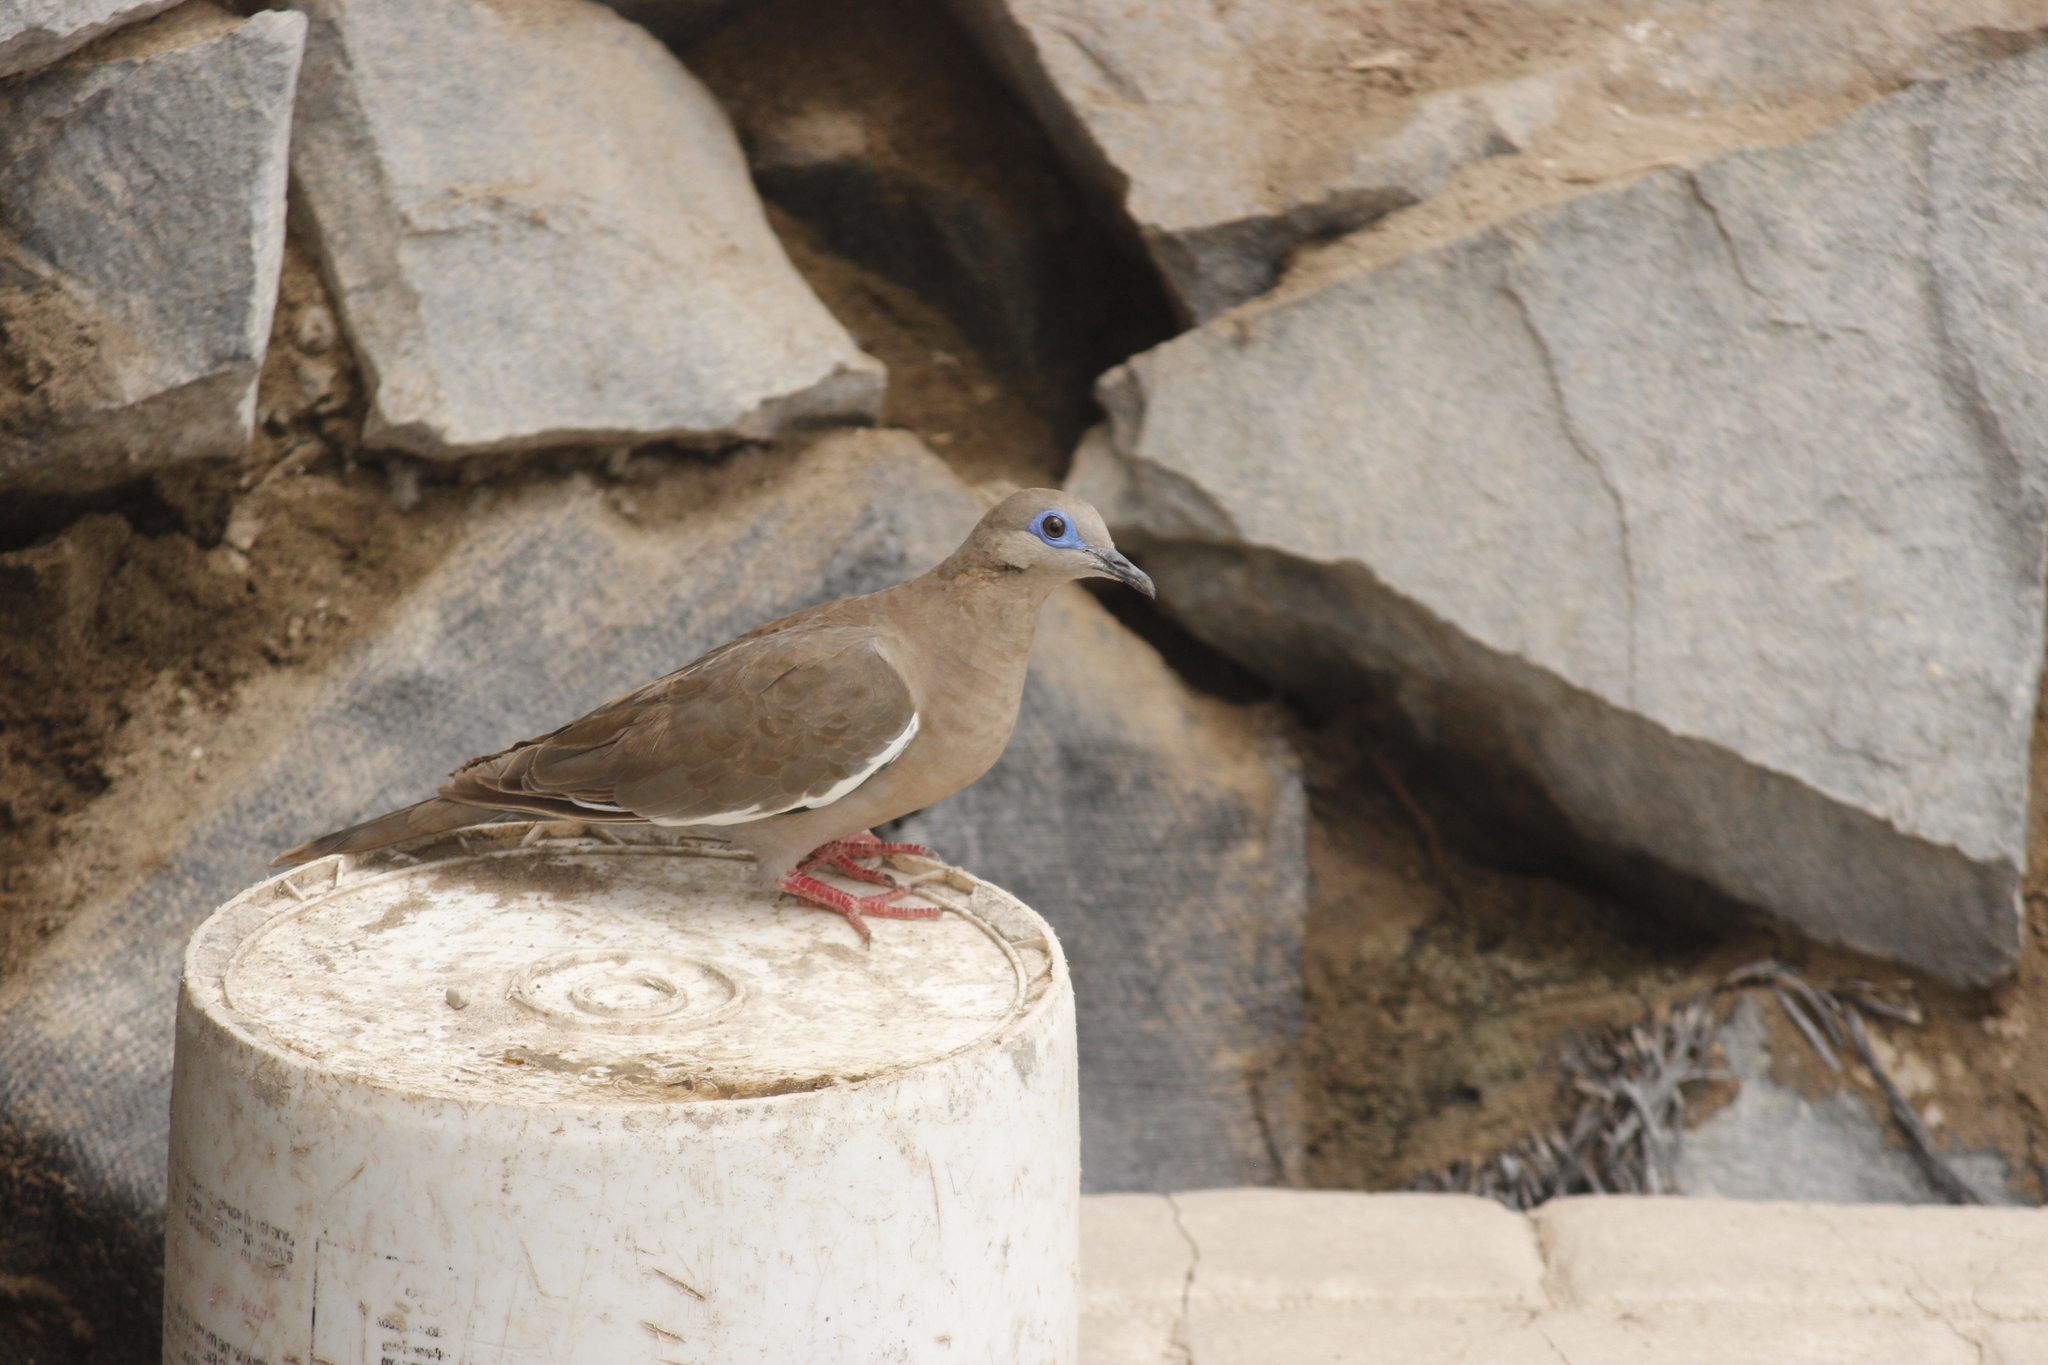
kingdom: Animalia
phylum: Chordata
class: Aves
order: Columbiformes
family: Columbidae
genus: Zenaida
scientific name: Zenaida meloda
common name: West peruvian dove
